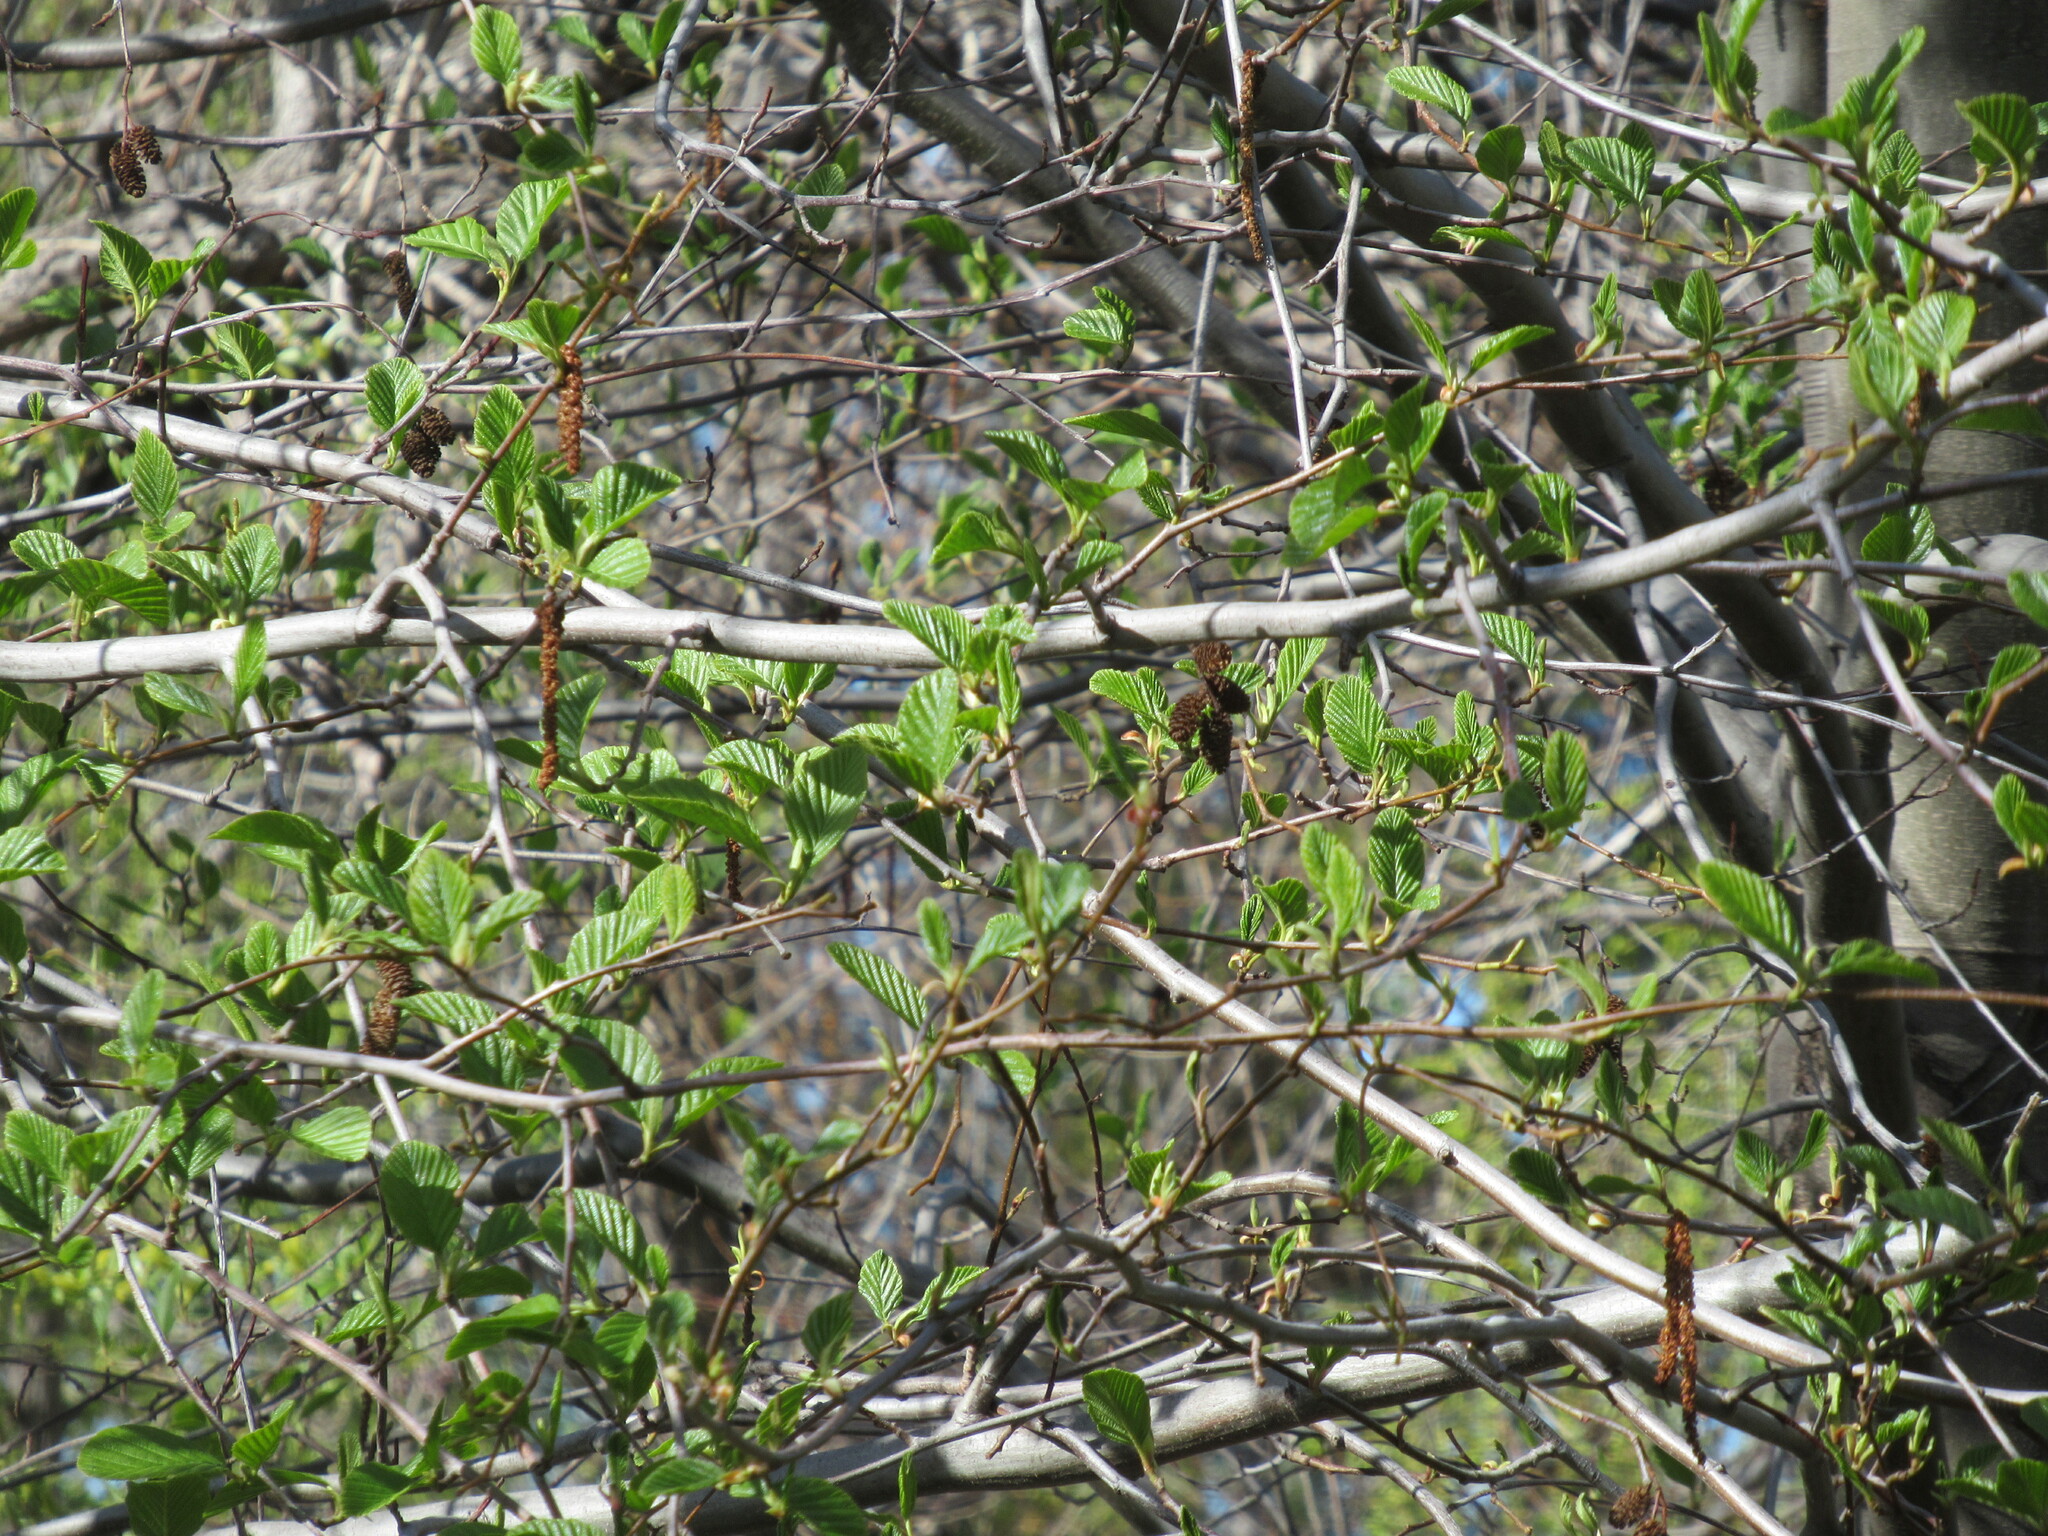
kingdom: Plantae
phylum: Tracheophyta
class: Magnoliopsida
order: Fagales
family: Betulaceae
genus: Alnus
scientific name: Alnus rhombifolia
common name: California alder
